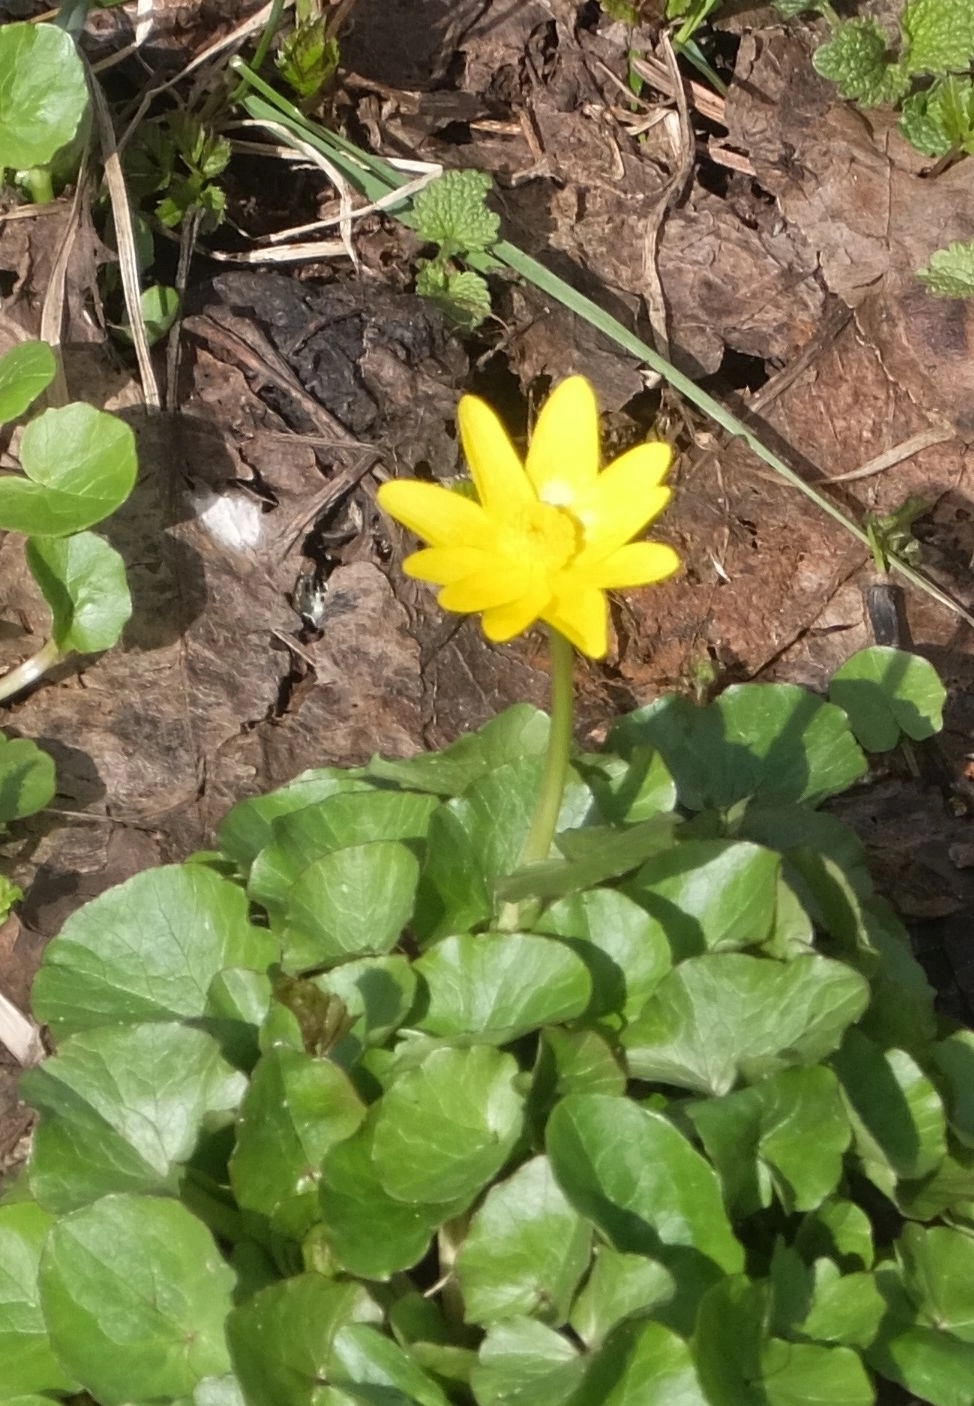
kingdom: Plantae
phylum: Tracheophyta
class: Magnoliopsida
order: Ranunculales
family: Ranunculaceae
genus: Ficaria
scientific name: Ficaria verna
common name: Lesser celandine
